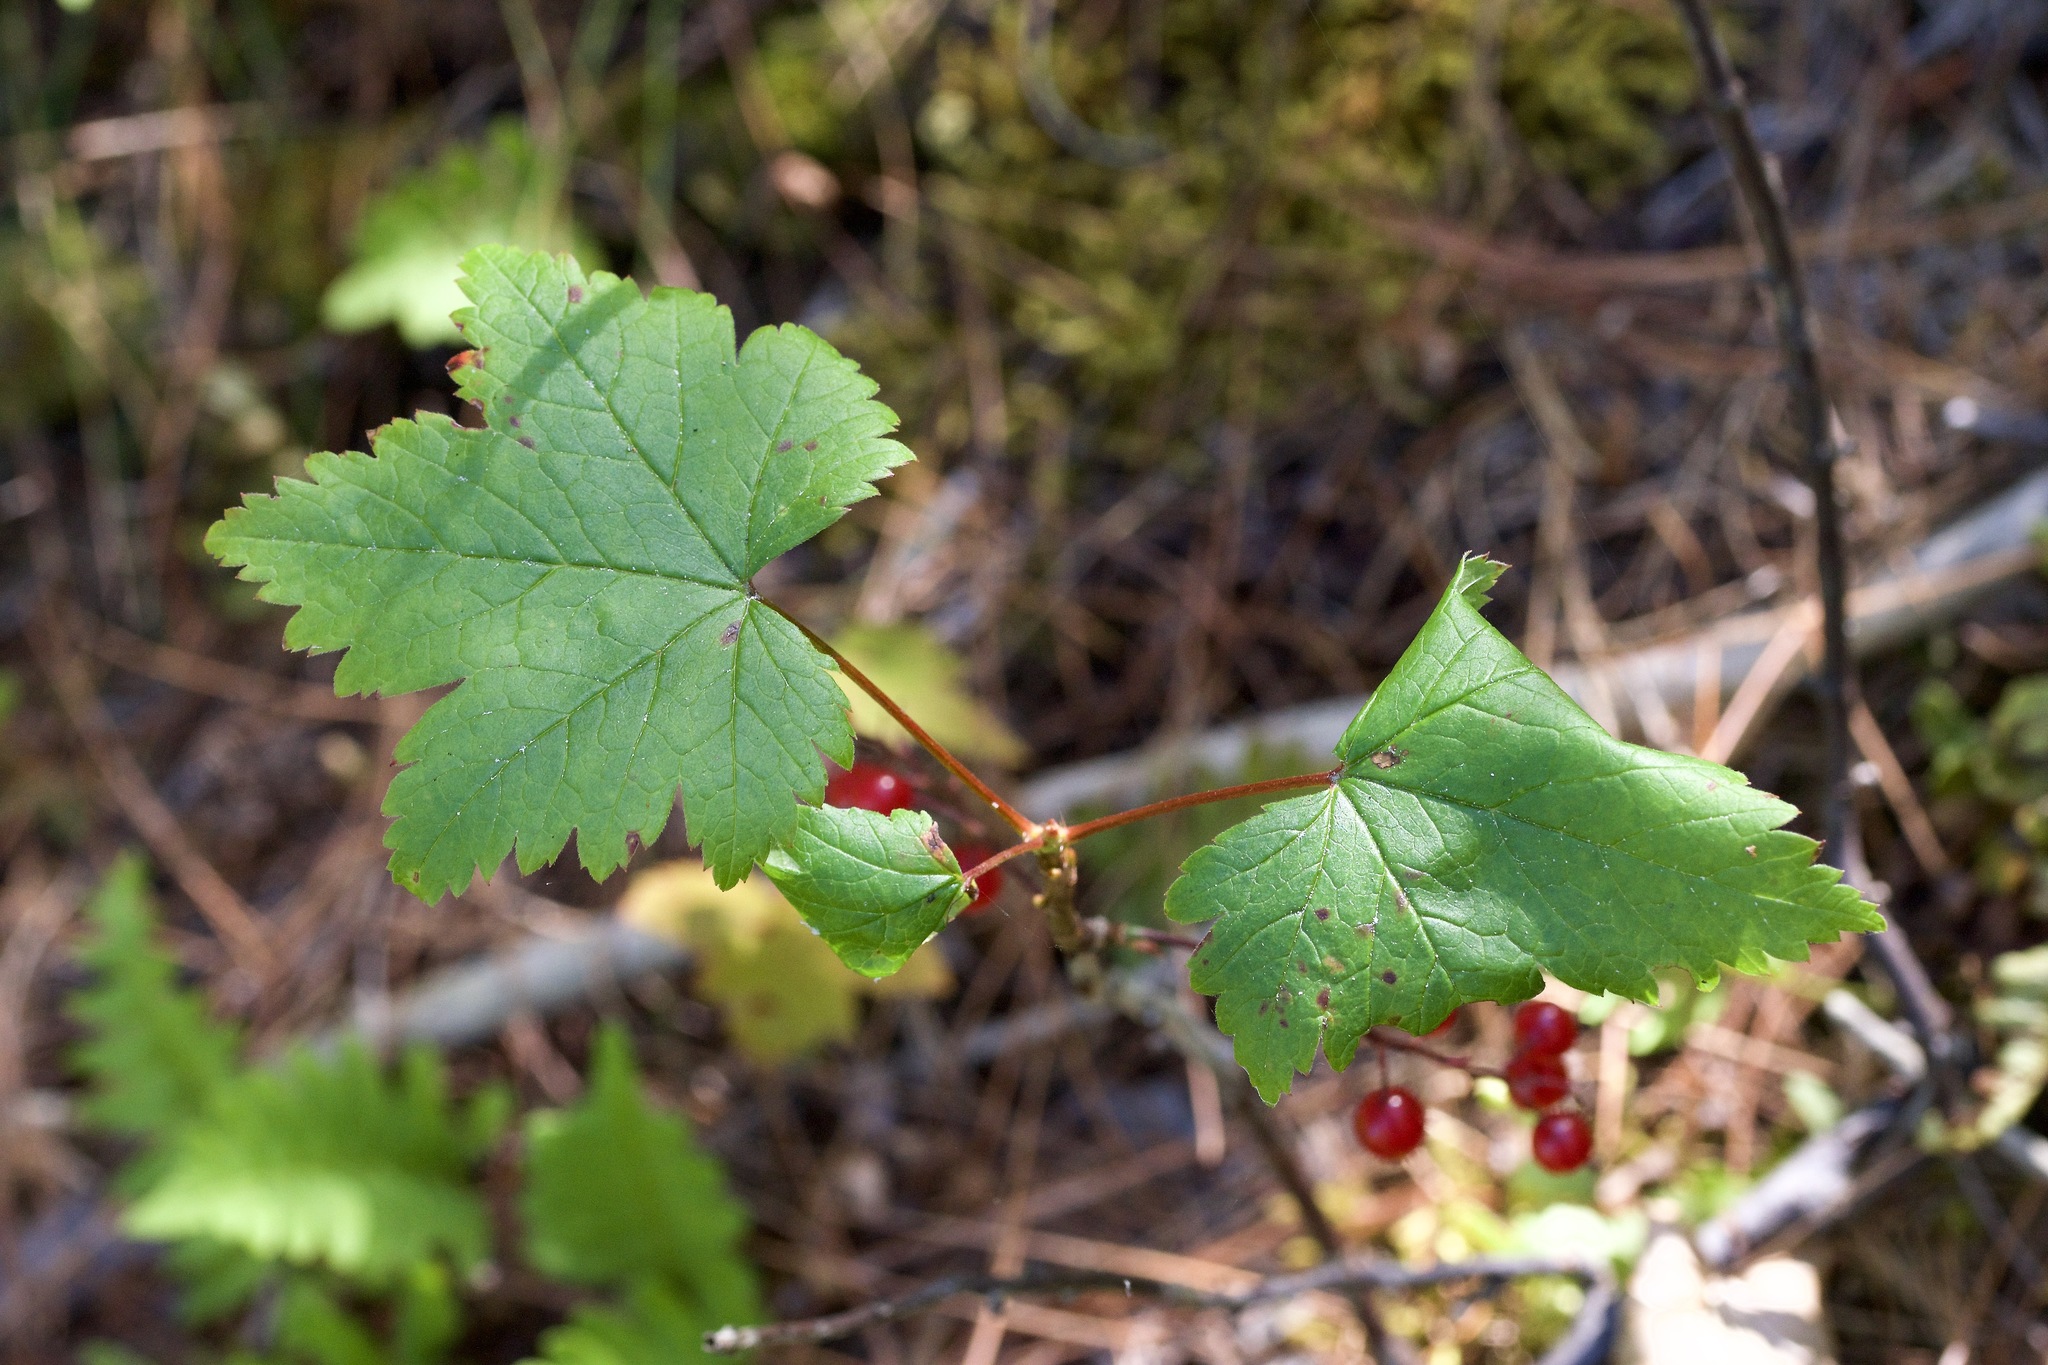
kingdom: Plantae
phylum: Tracheophyta
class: Magnoliopsida
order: Saxifragales
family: Grossulariaceae
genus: Ribes
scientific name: Ribes glandulosum
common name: Skunk currant
